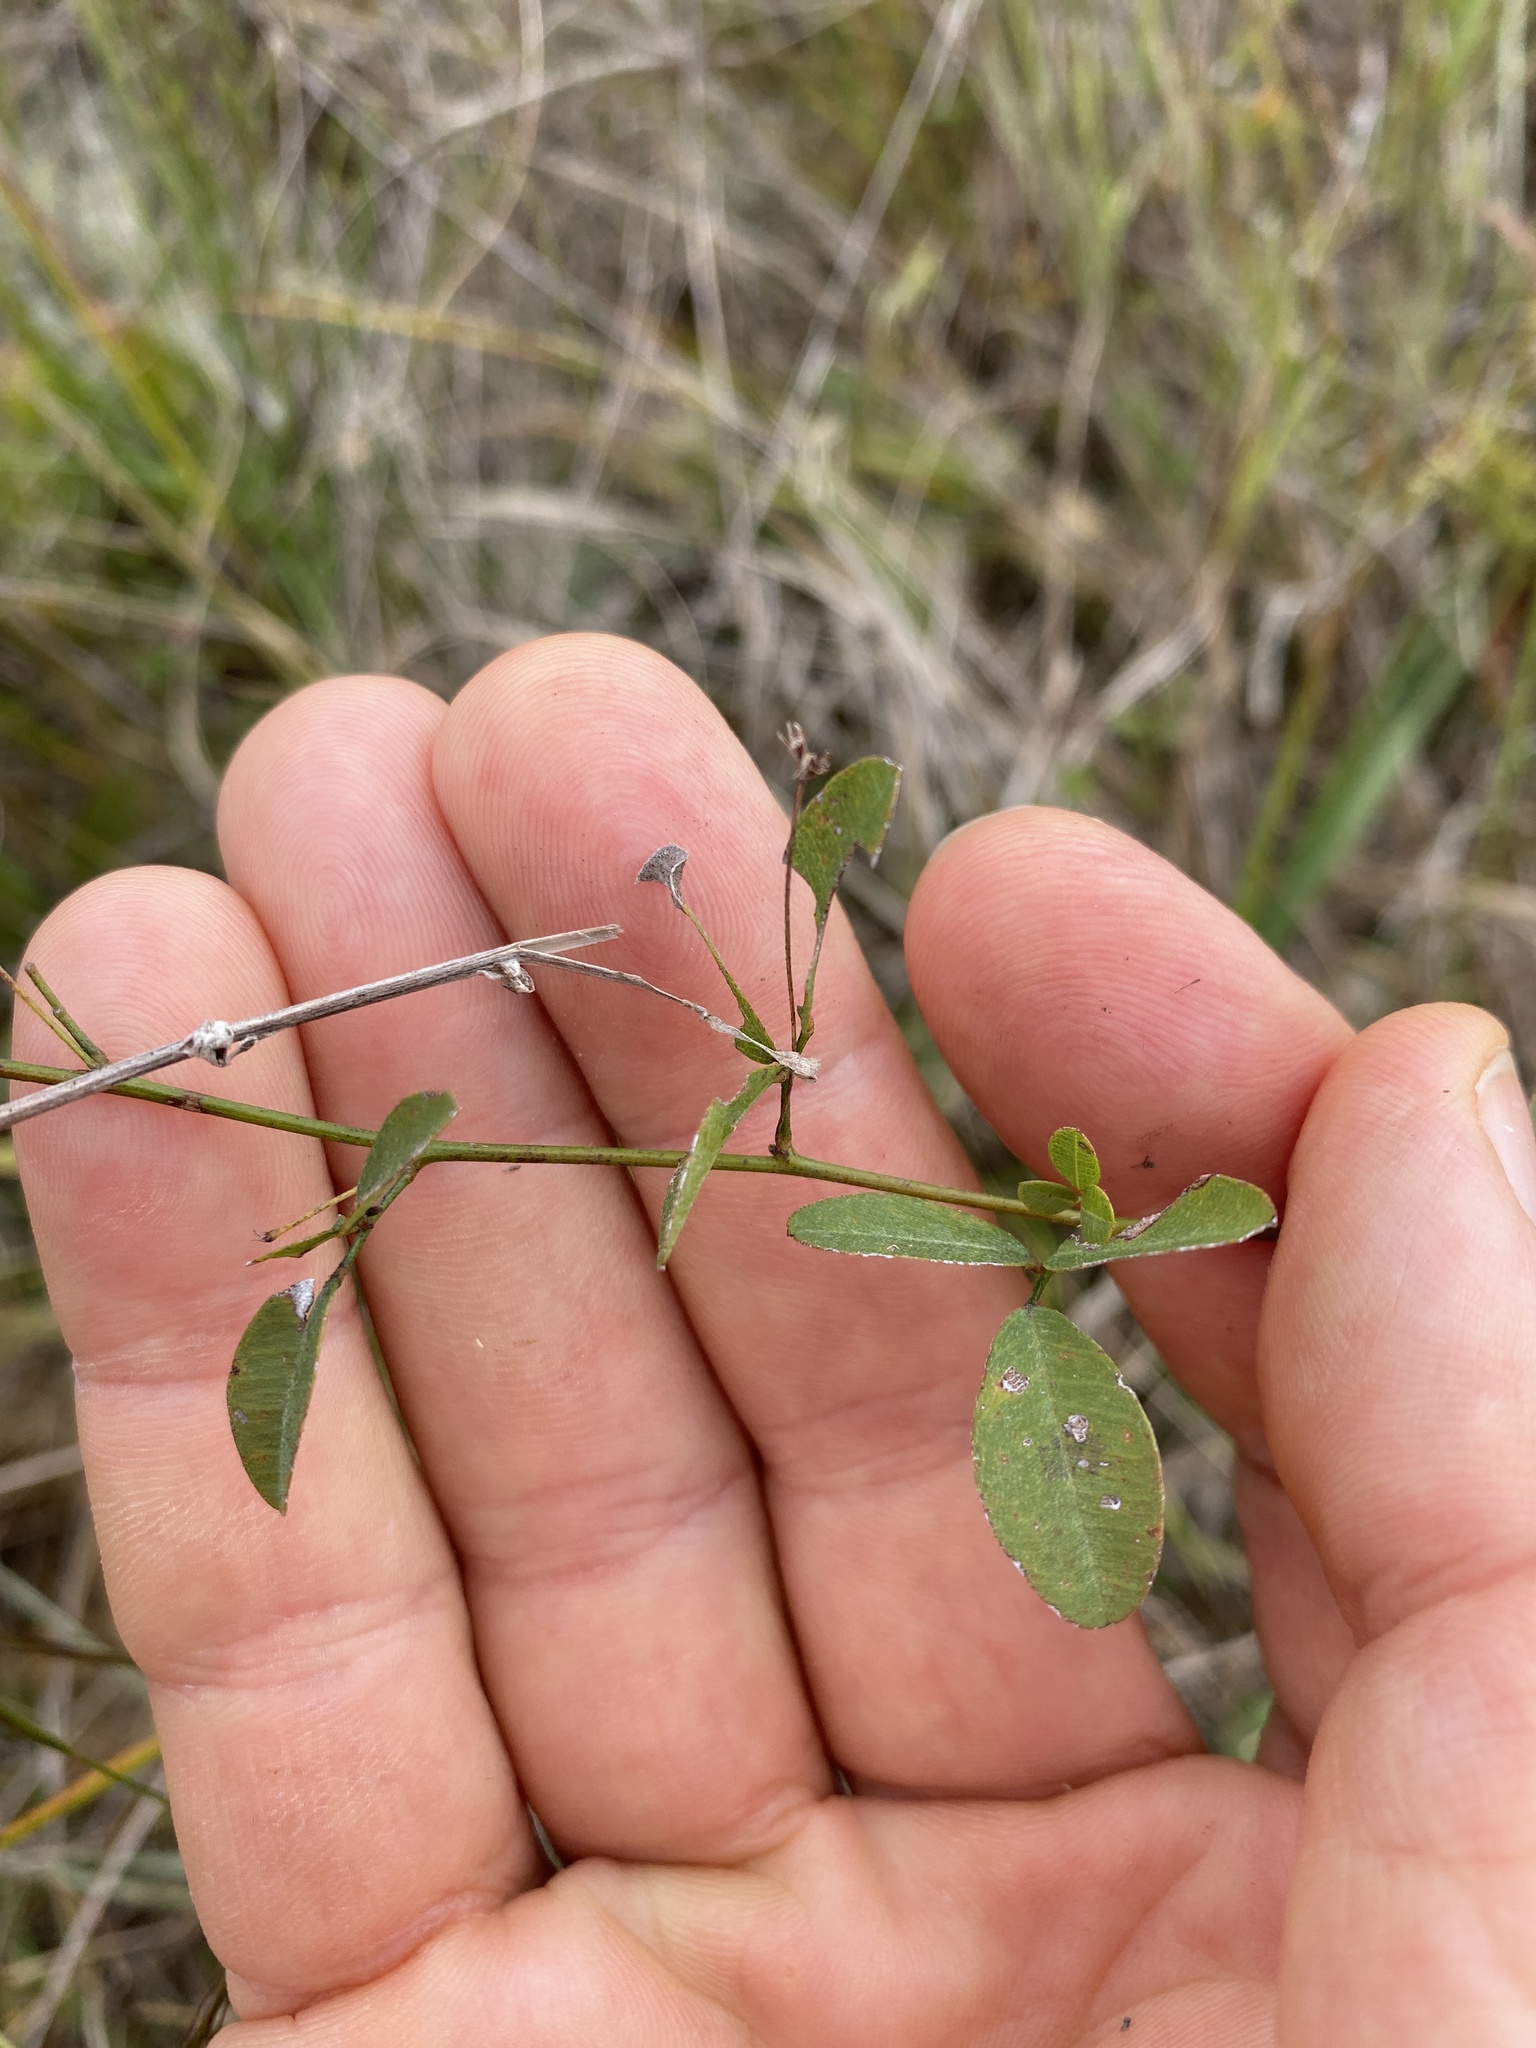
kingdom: Plantae
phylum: Tracheophyta
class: Magnoliopsida
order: Fabales
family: Fabaceae
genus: Lespedeza
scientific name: Lespedeza repens
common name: Creeping bush-clover
